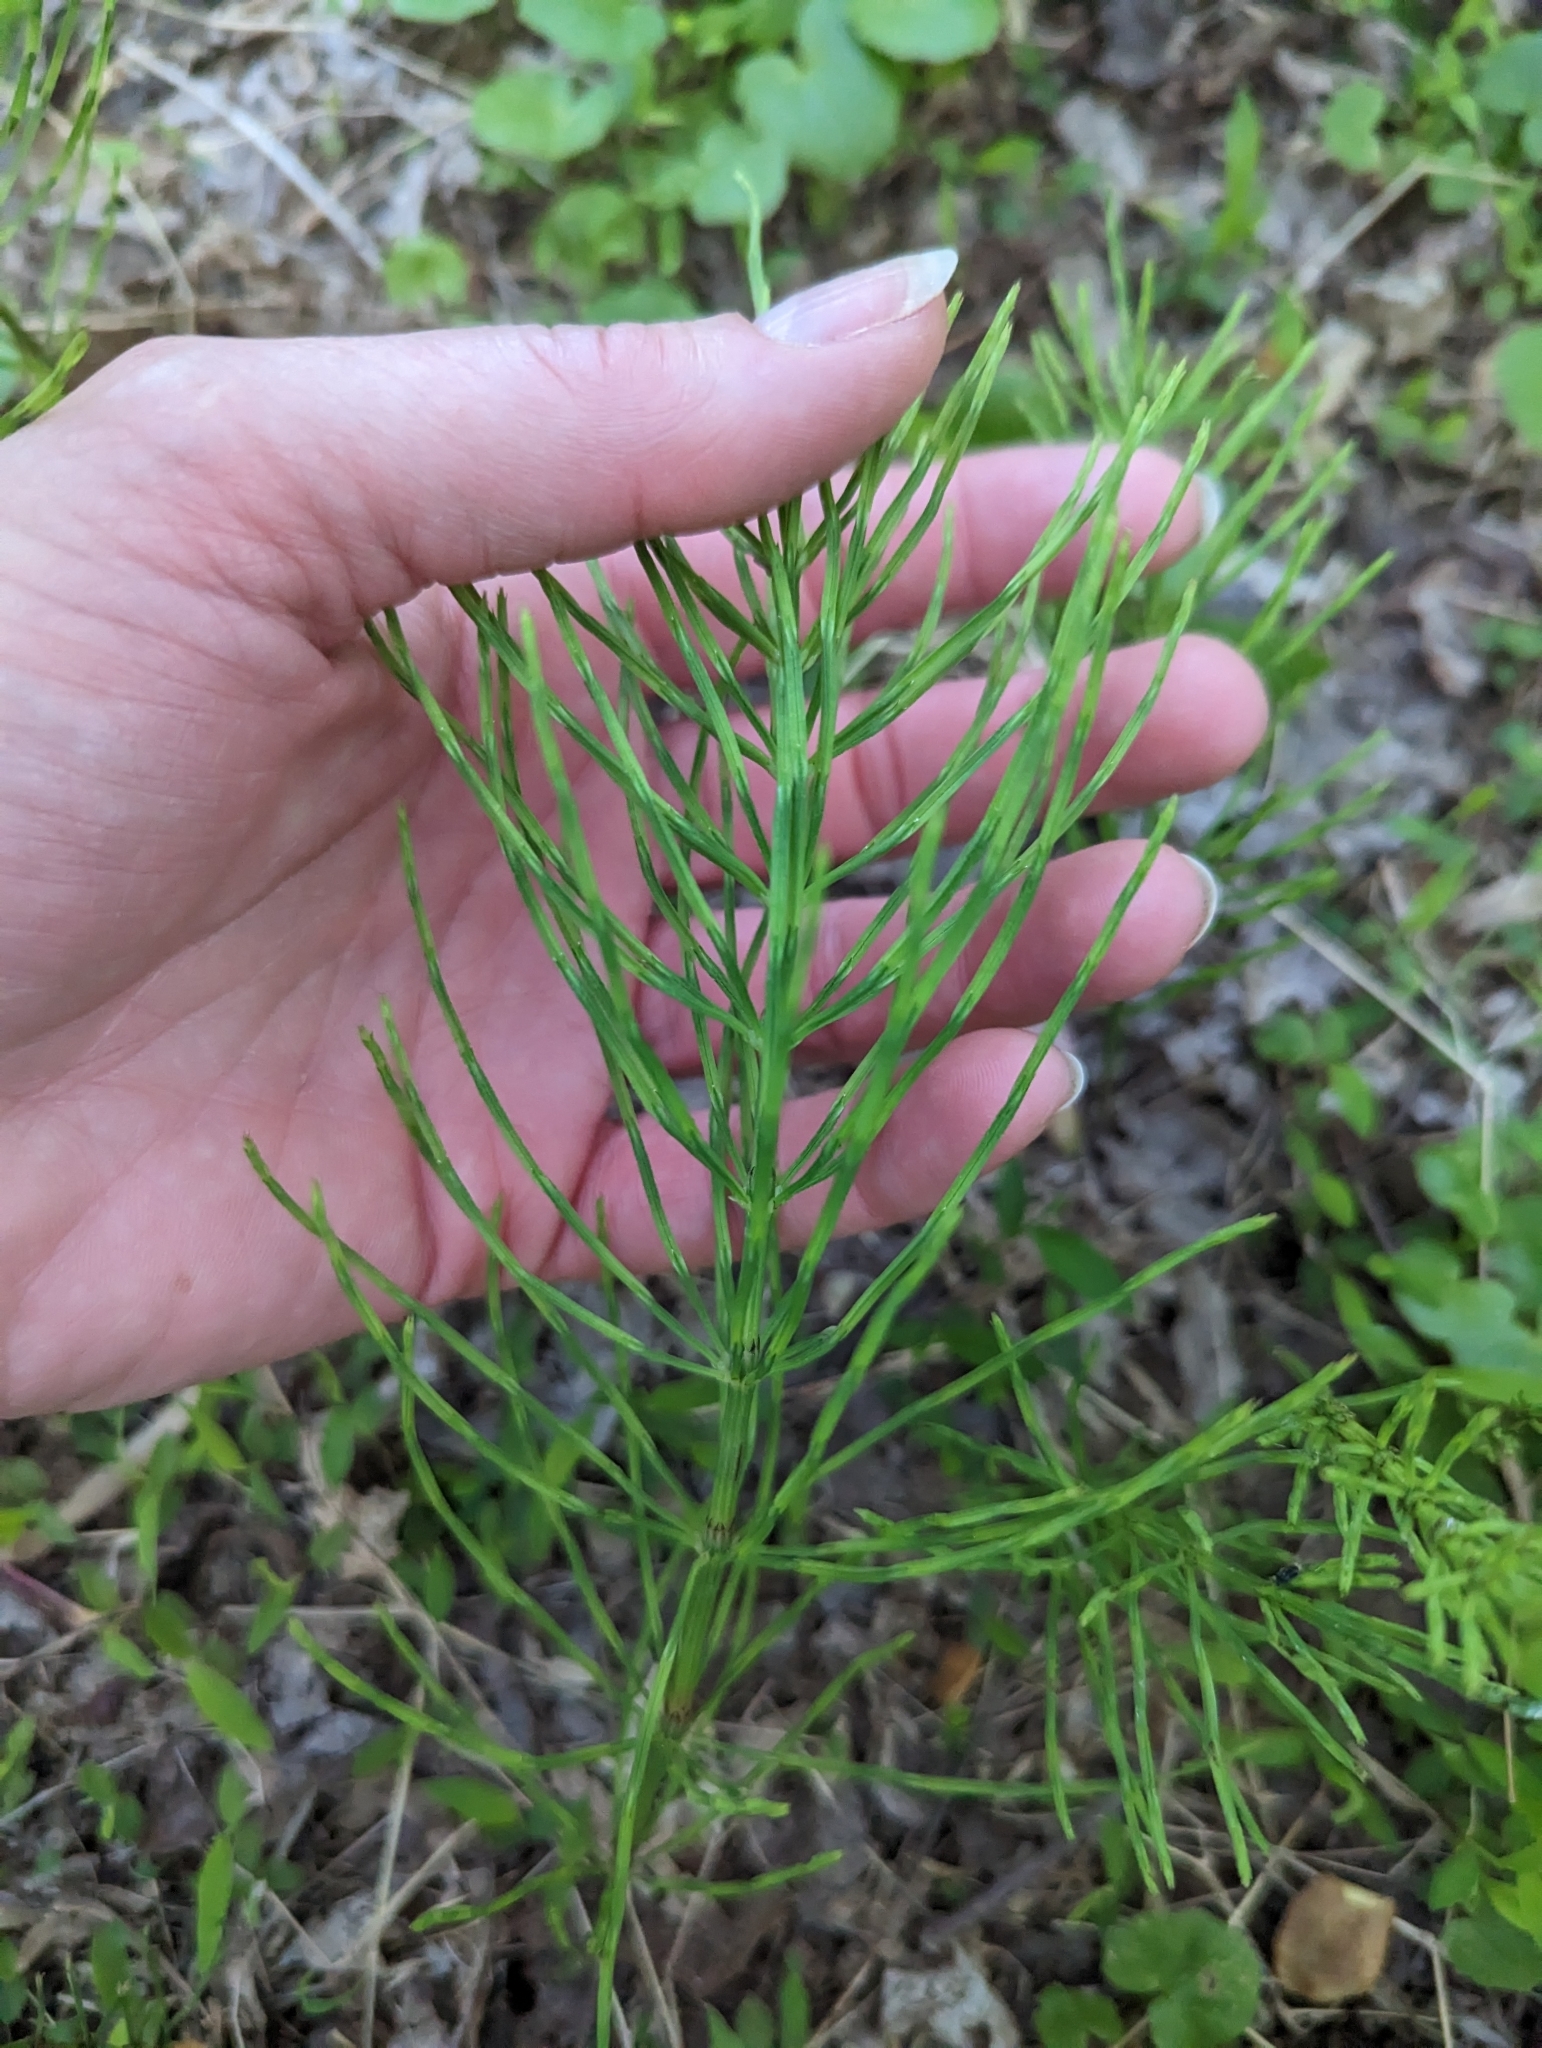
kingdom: Plantae
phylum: Tracheophyta
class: Polypodiopsida
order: Equisetales
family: Equisetaceae
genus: Equisetum
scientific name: Equisetum arvense
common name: Field horsetail
